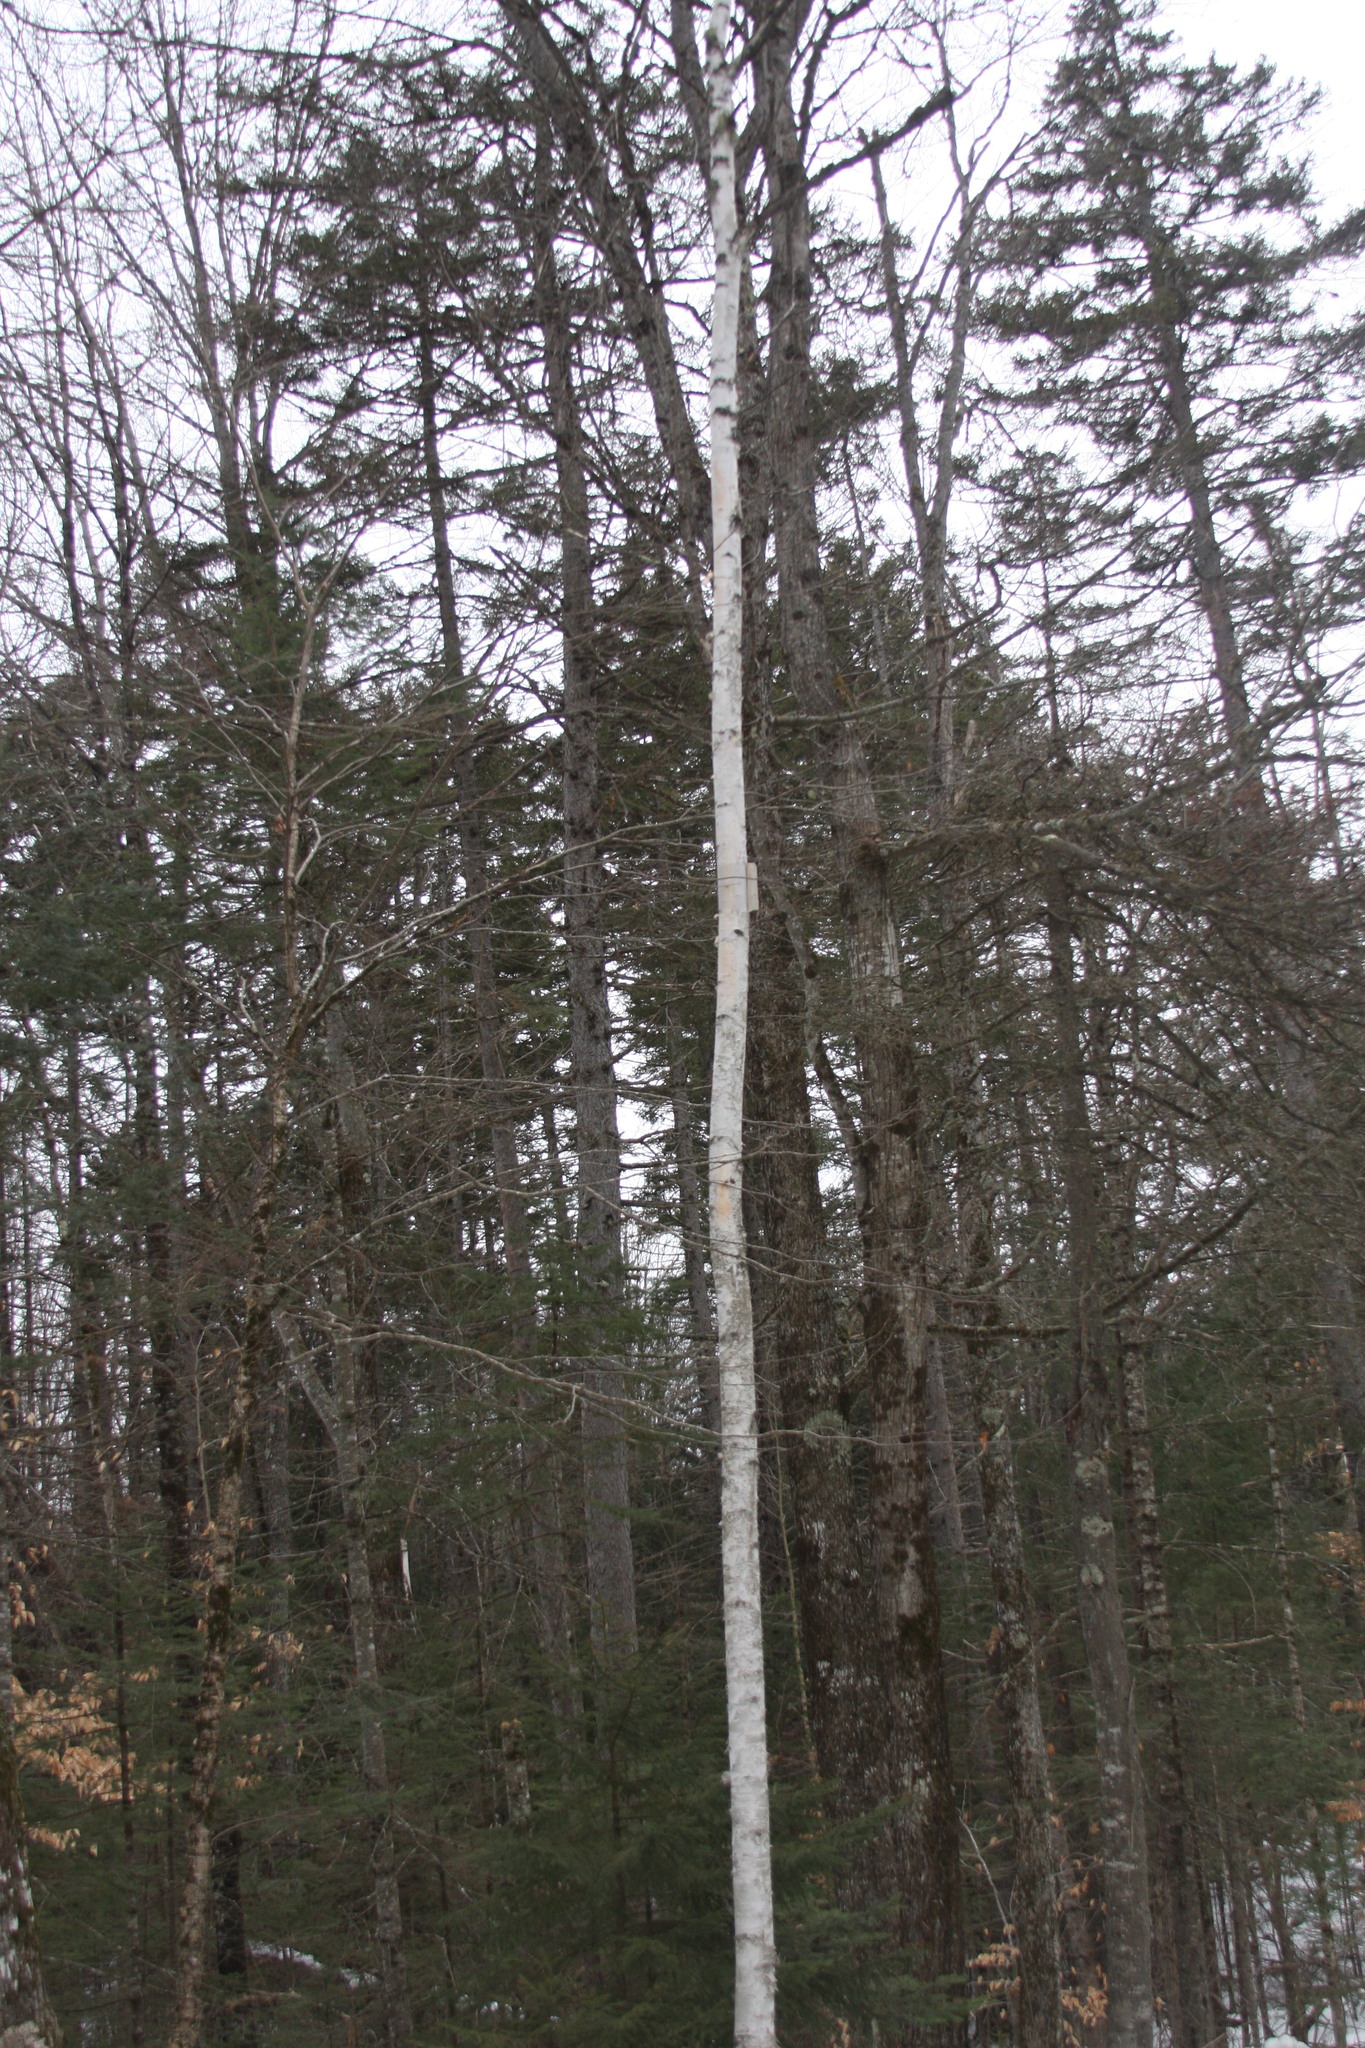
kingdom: Plantae
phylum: Tracheophyta
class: Magnoliopsida
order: Fagales
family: Betulaceae
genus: Betula
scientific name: Betula papyrifera
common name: Paper birch
